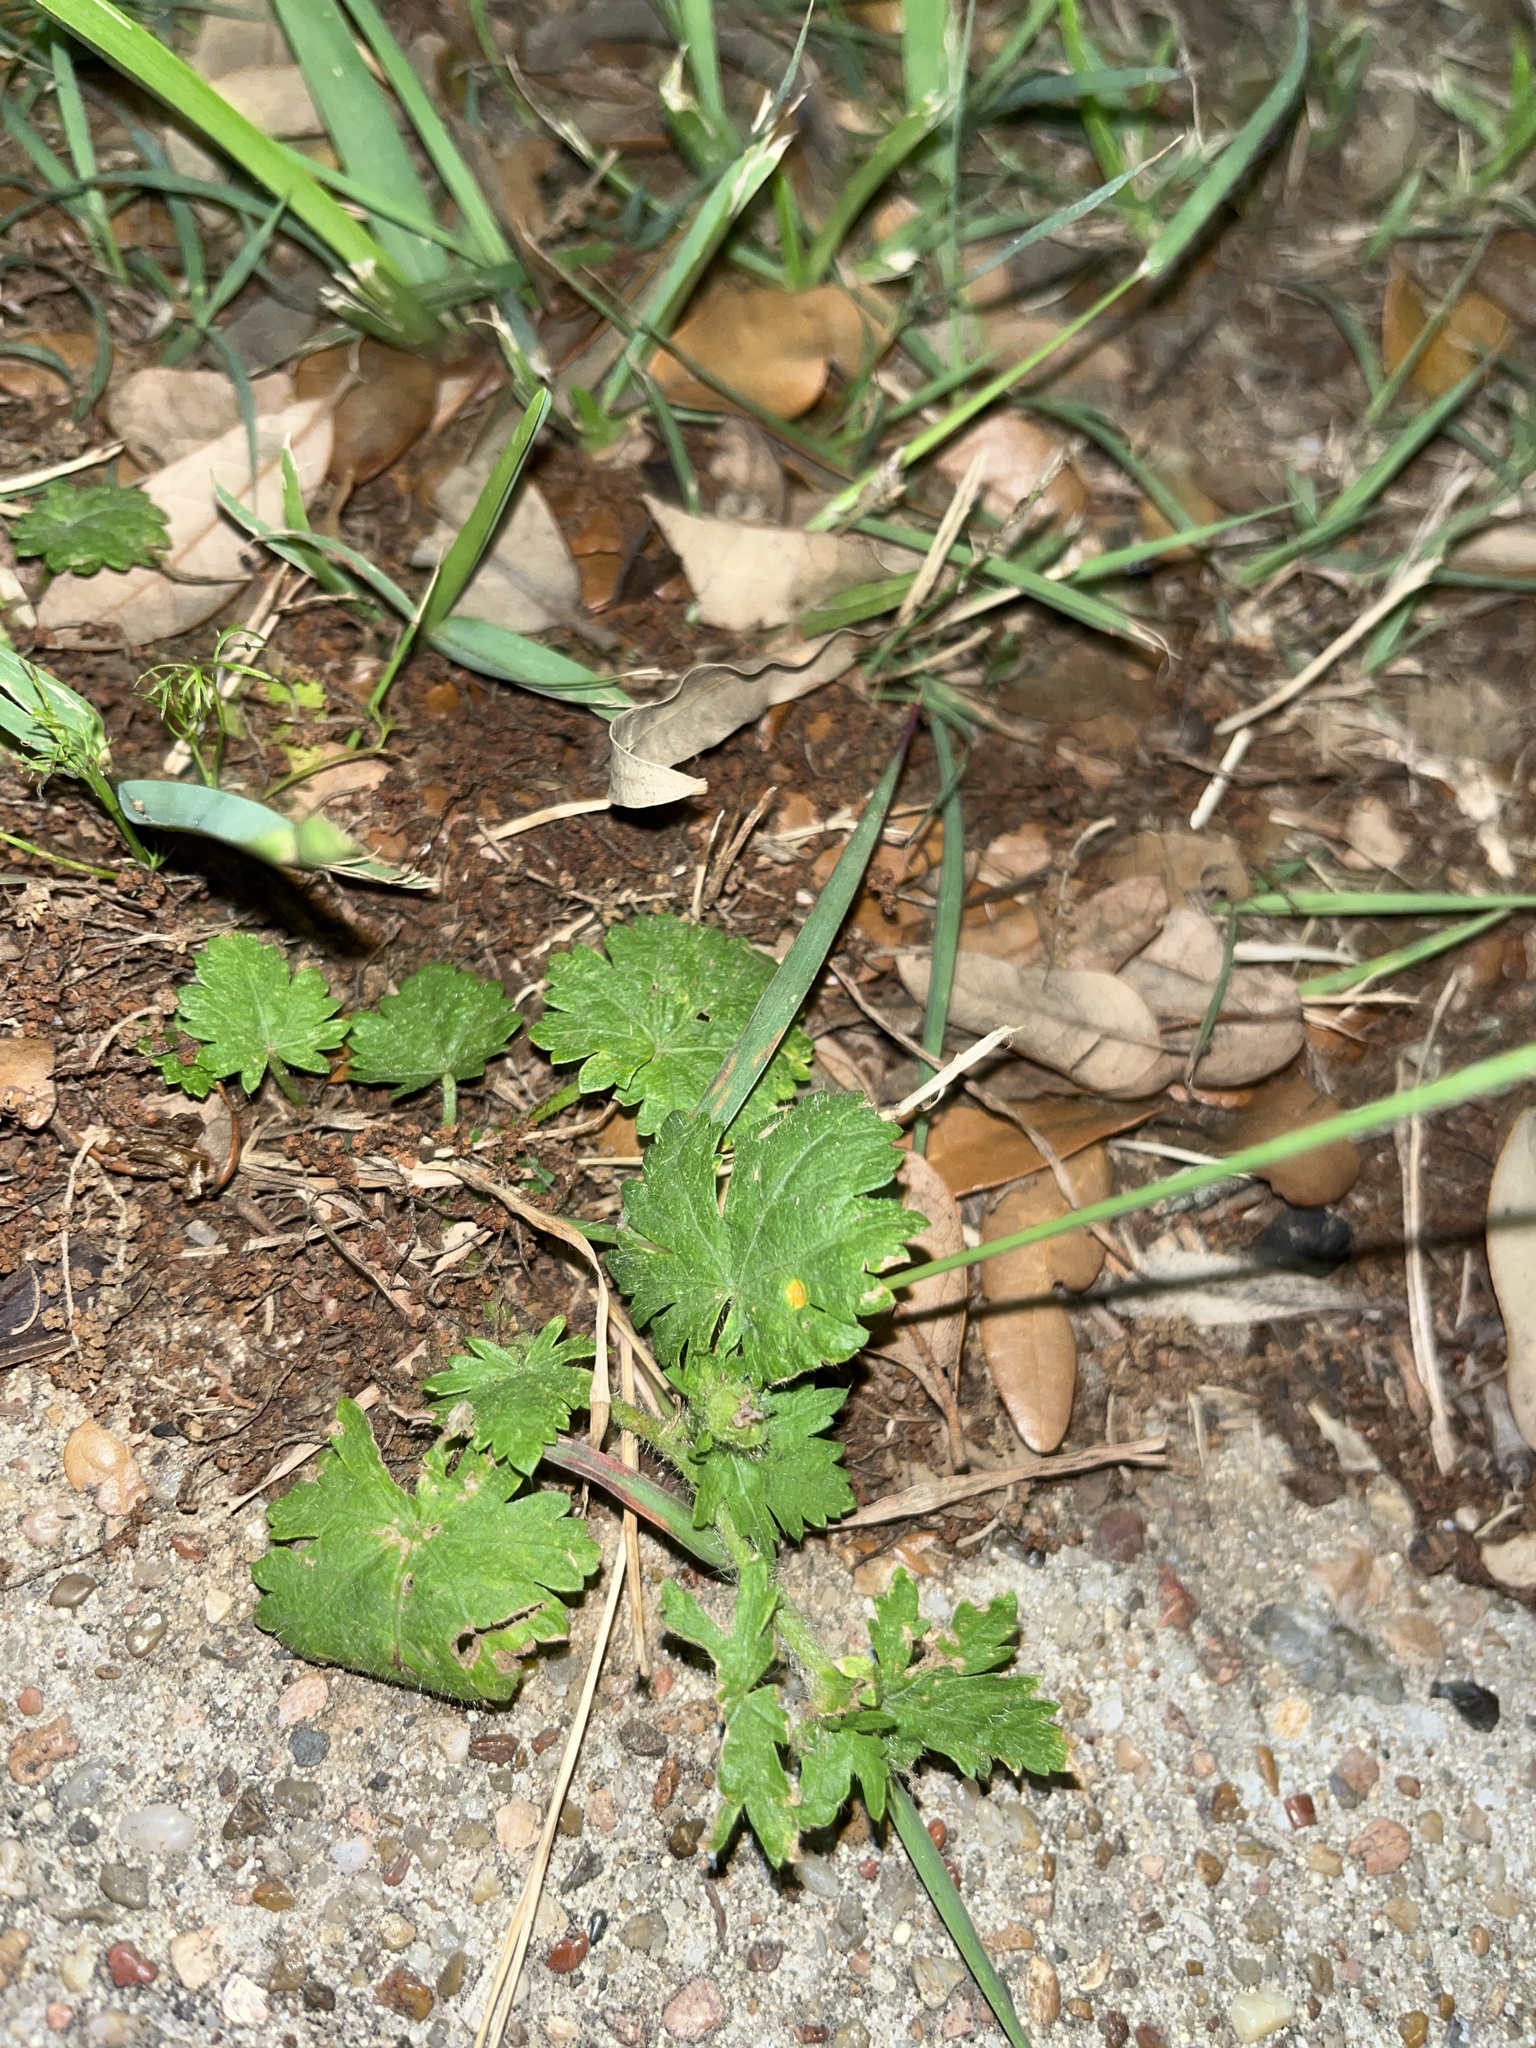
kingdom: Plantae
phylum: Tracheophyta
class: Magnoliopsida
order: Malvales
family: Malvaceae
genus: Modiola
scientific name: Modiola caroliniana
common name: Carolina bristlemallow
